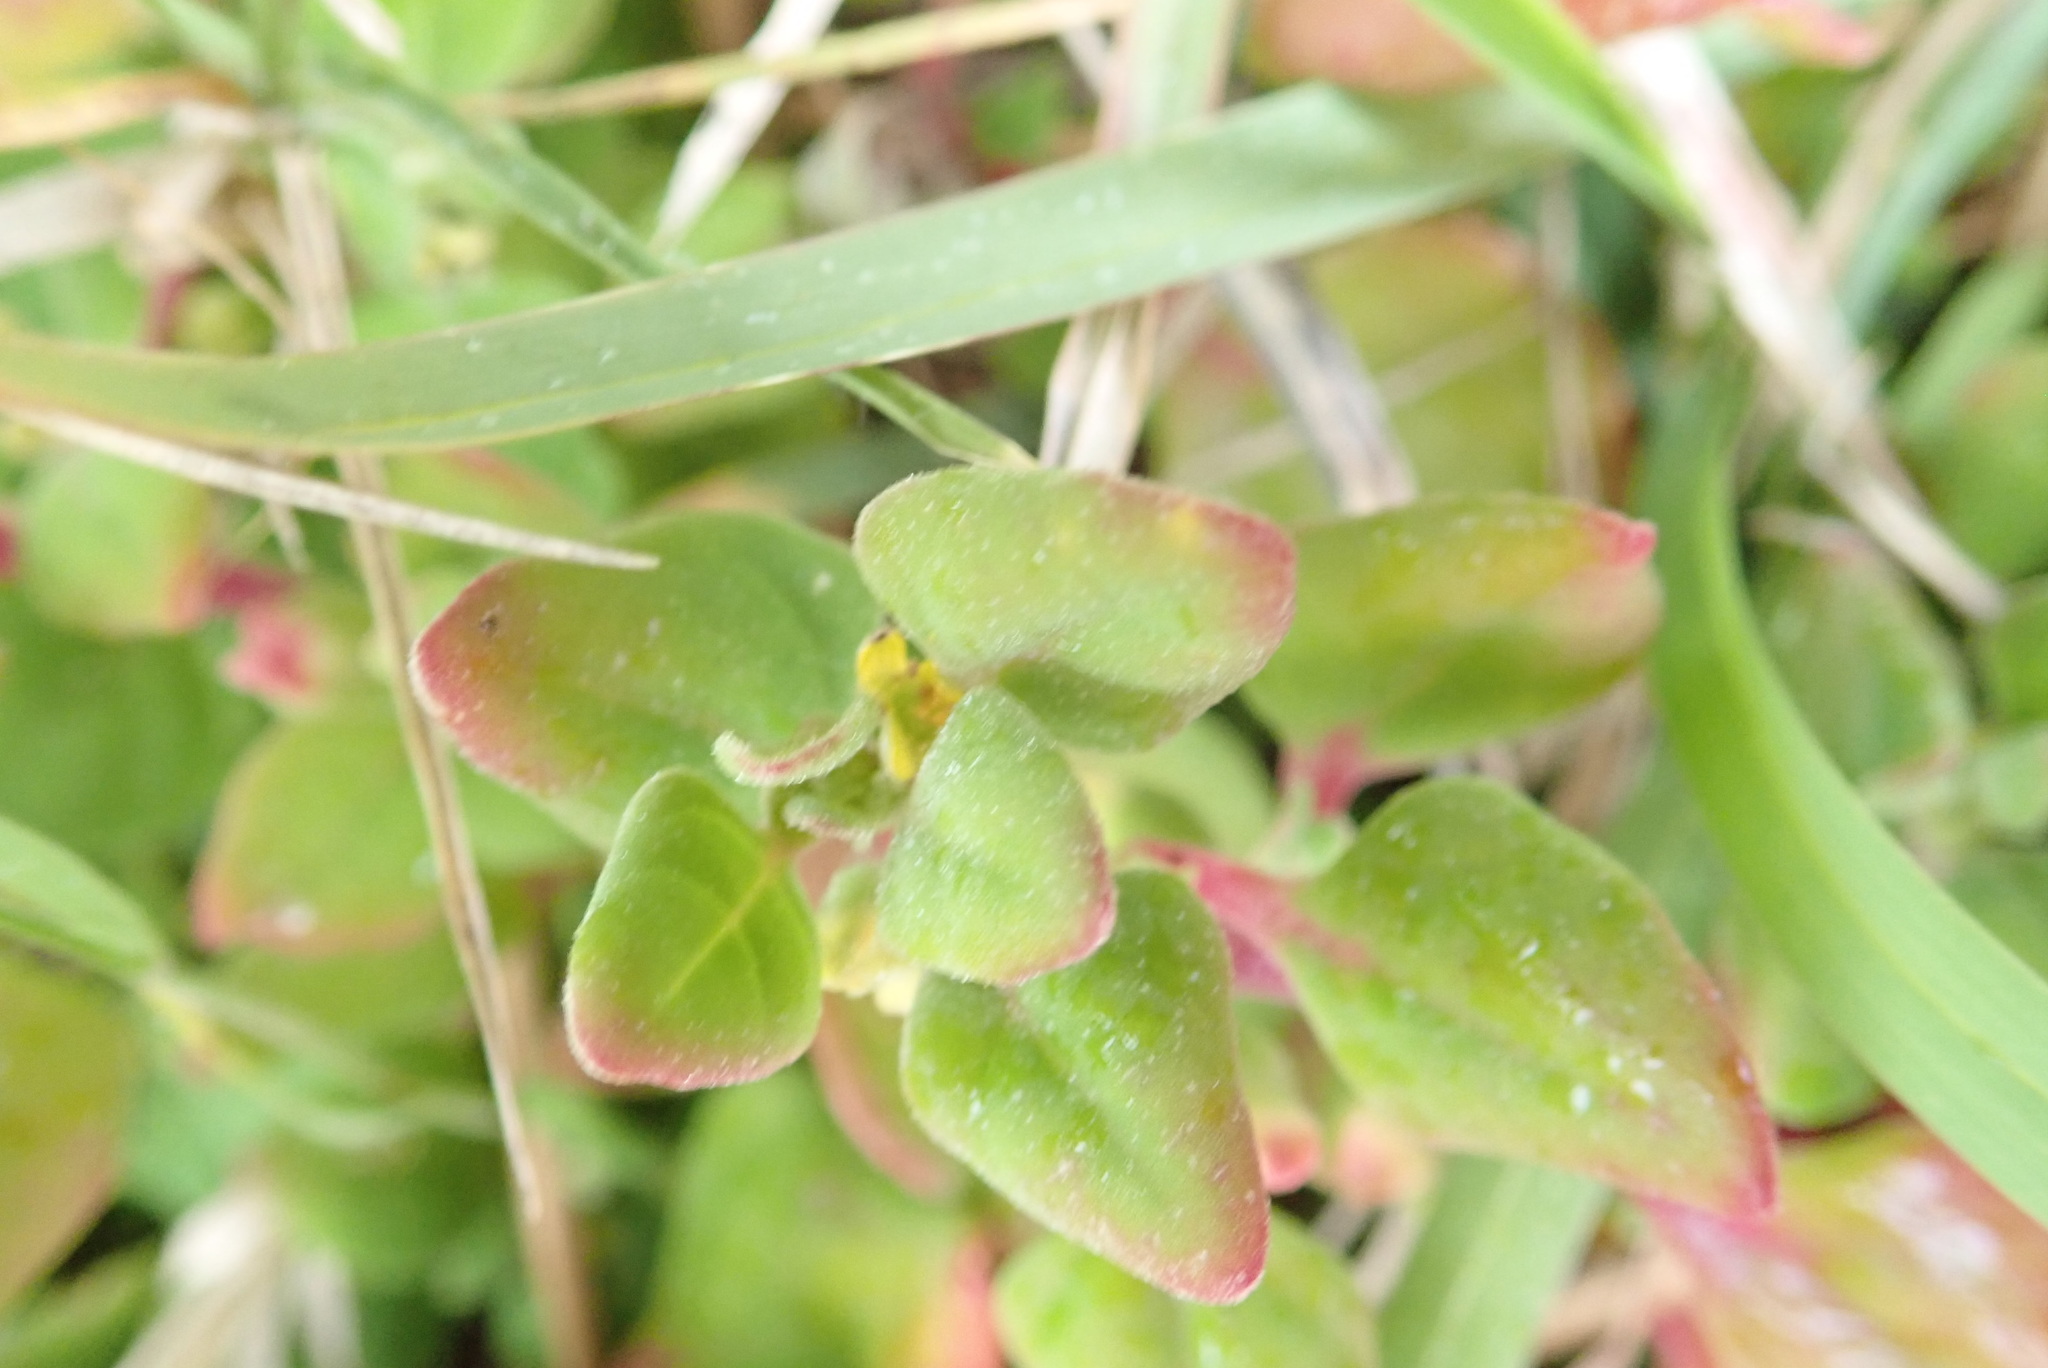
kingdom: Plantae
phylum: Tracheophyta
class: Magnoliopsida
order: Caryophyllales
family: Aizoaceae
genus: Tetragonia
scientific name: Tetragonia implexicoma
